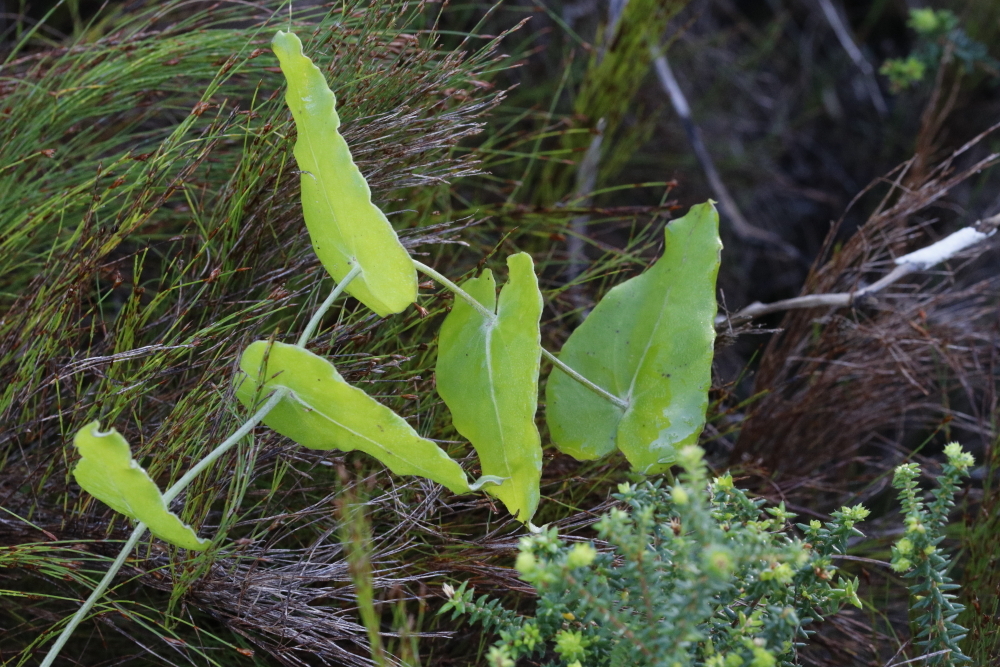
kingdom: Plantae
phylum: Tracheophyta
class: Magnoliopsida
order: Asterales
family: Asteraceae
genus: Othonna
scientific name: Othonna undulosa
